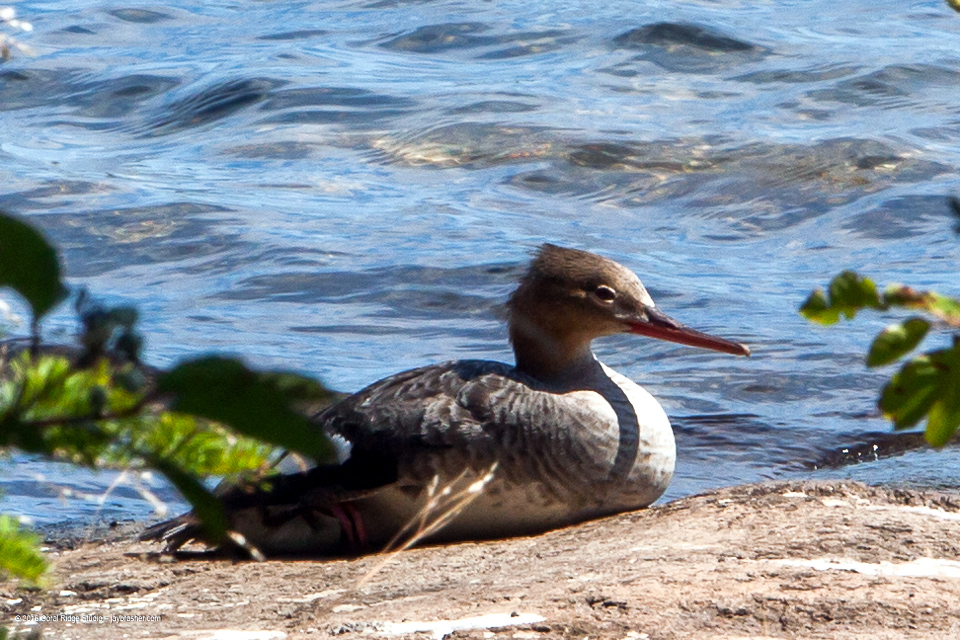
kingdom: Animalia
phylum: Chordata
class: Aves
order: Anseriformes
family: Anatidae
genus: Mergus
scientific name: Mergus serrator
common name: Red-breasted merganser
